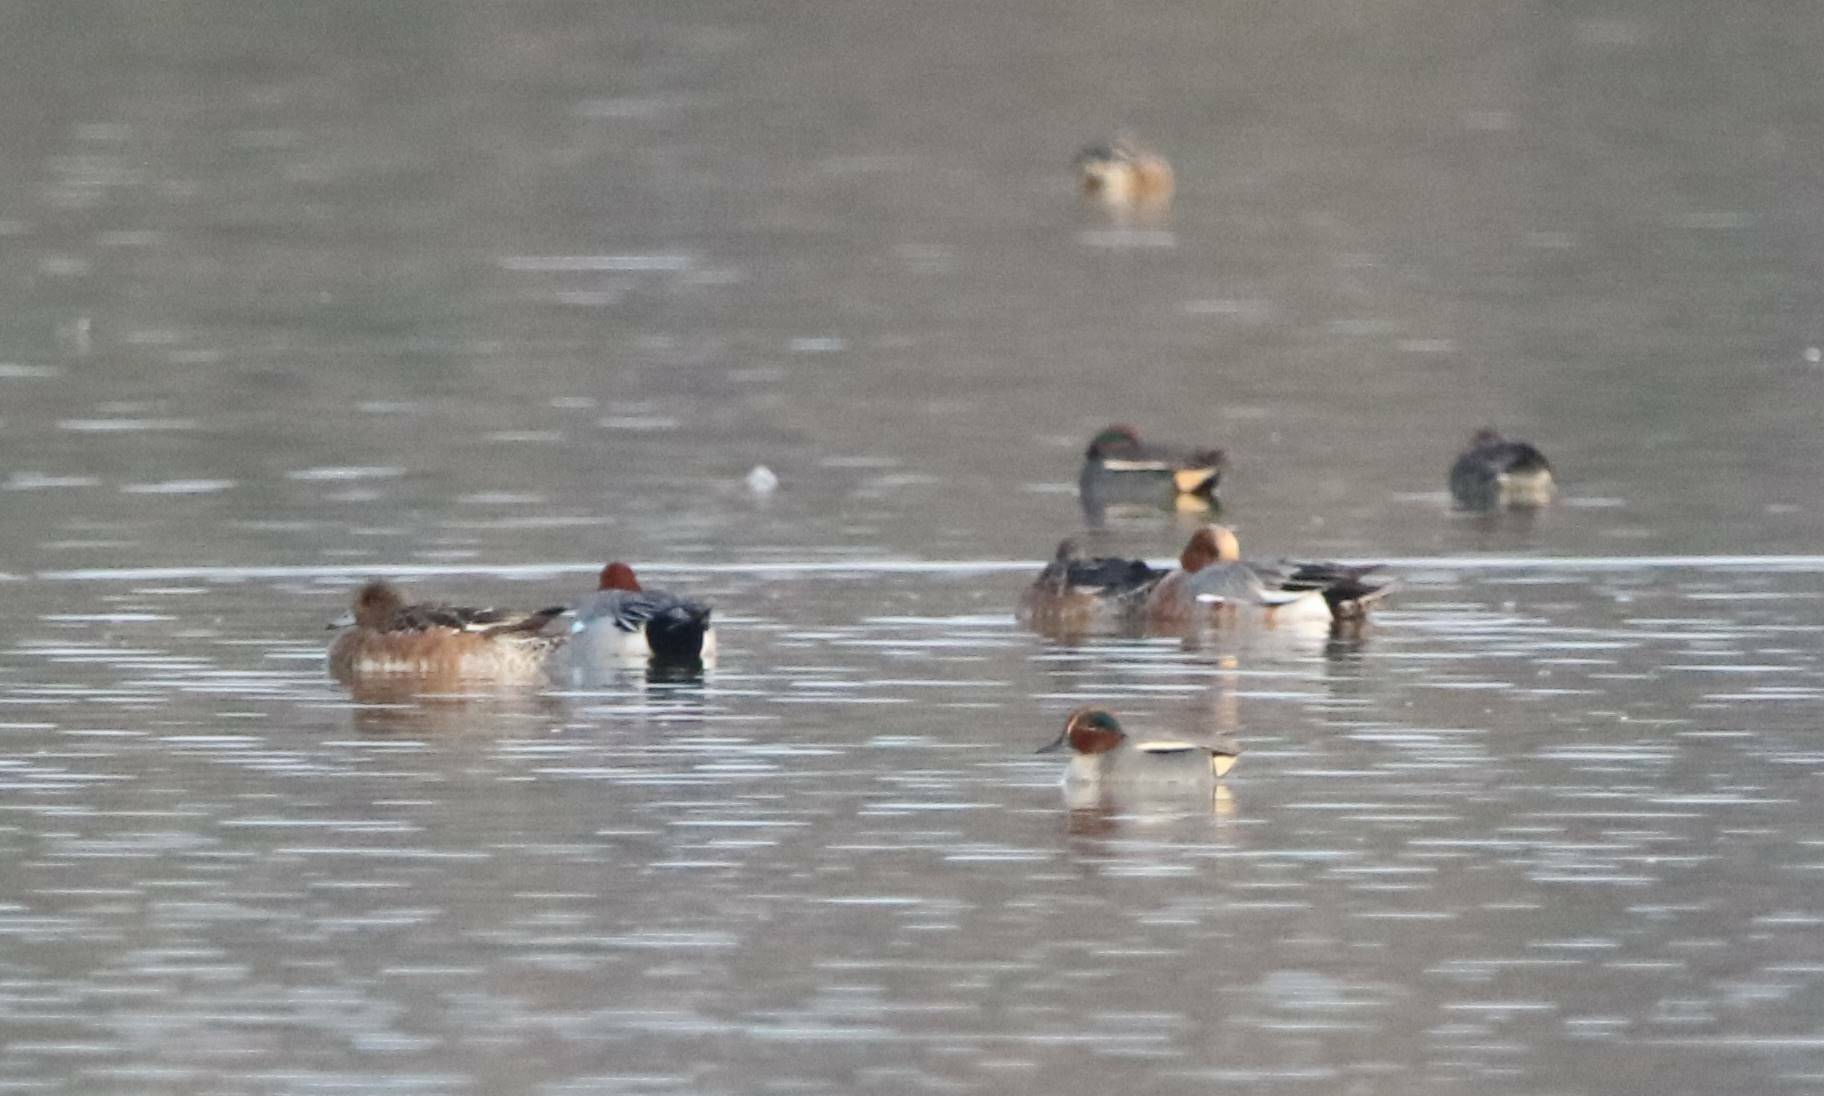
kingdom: Animalia
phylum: Chordata
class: Aves
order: Anseriformes
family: Anatidae
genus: Anas
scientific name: Anas crecca
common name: Eurasian teal
